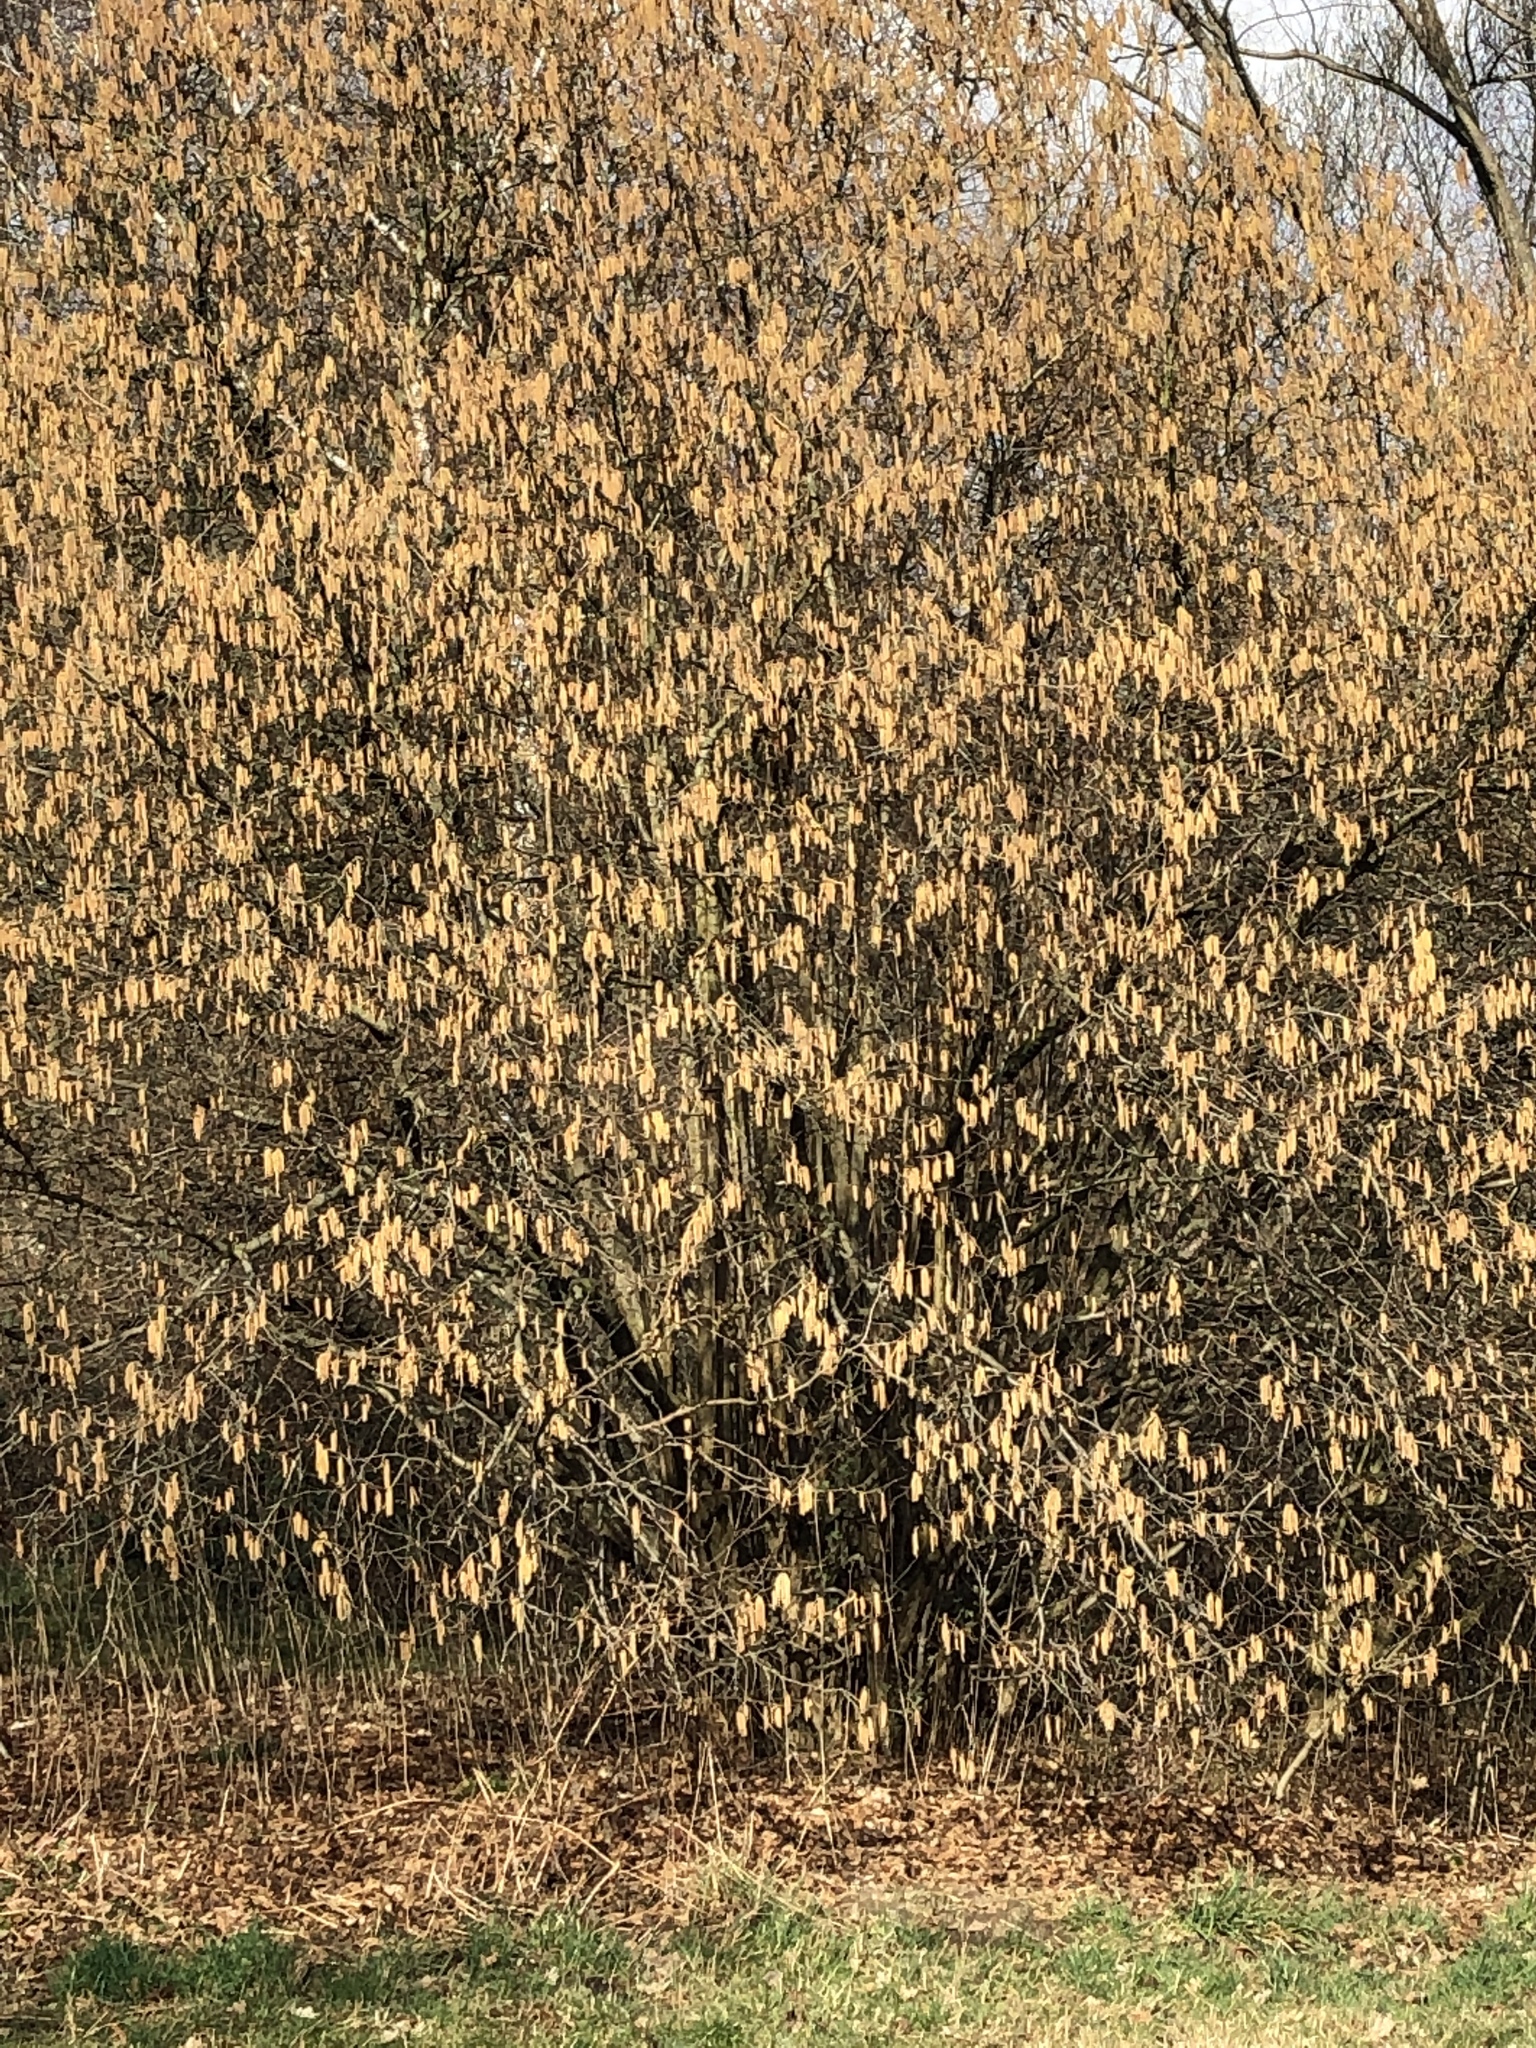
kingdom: Plantae
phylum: Tracheophyta
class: Magnoliopsida
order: Fagales
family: Betulaceae
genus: Corylus
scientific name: Corylus avellana
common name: European hazel
